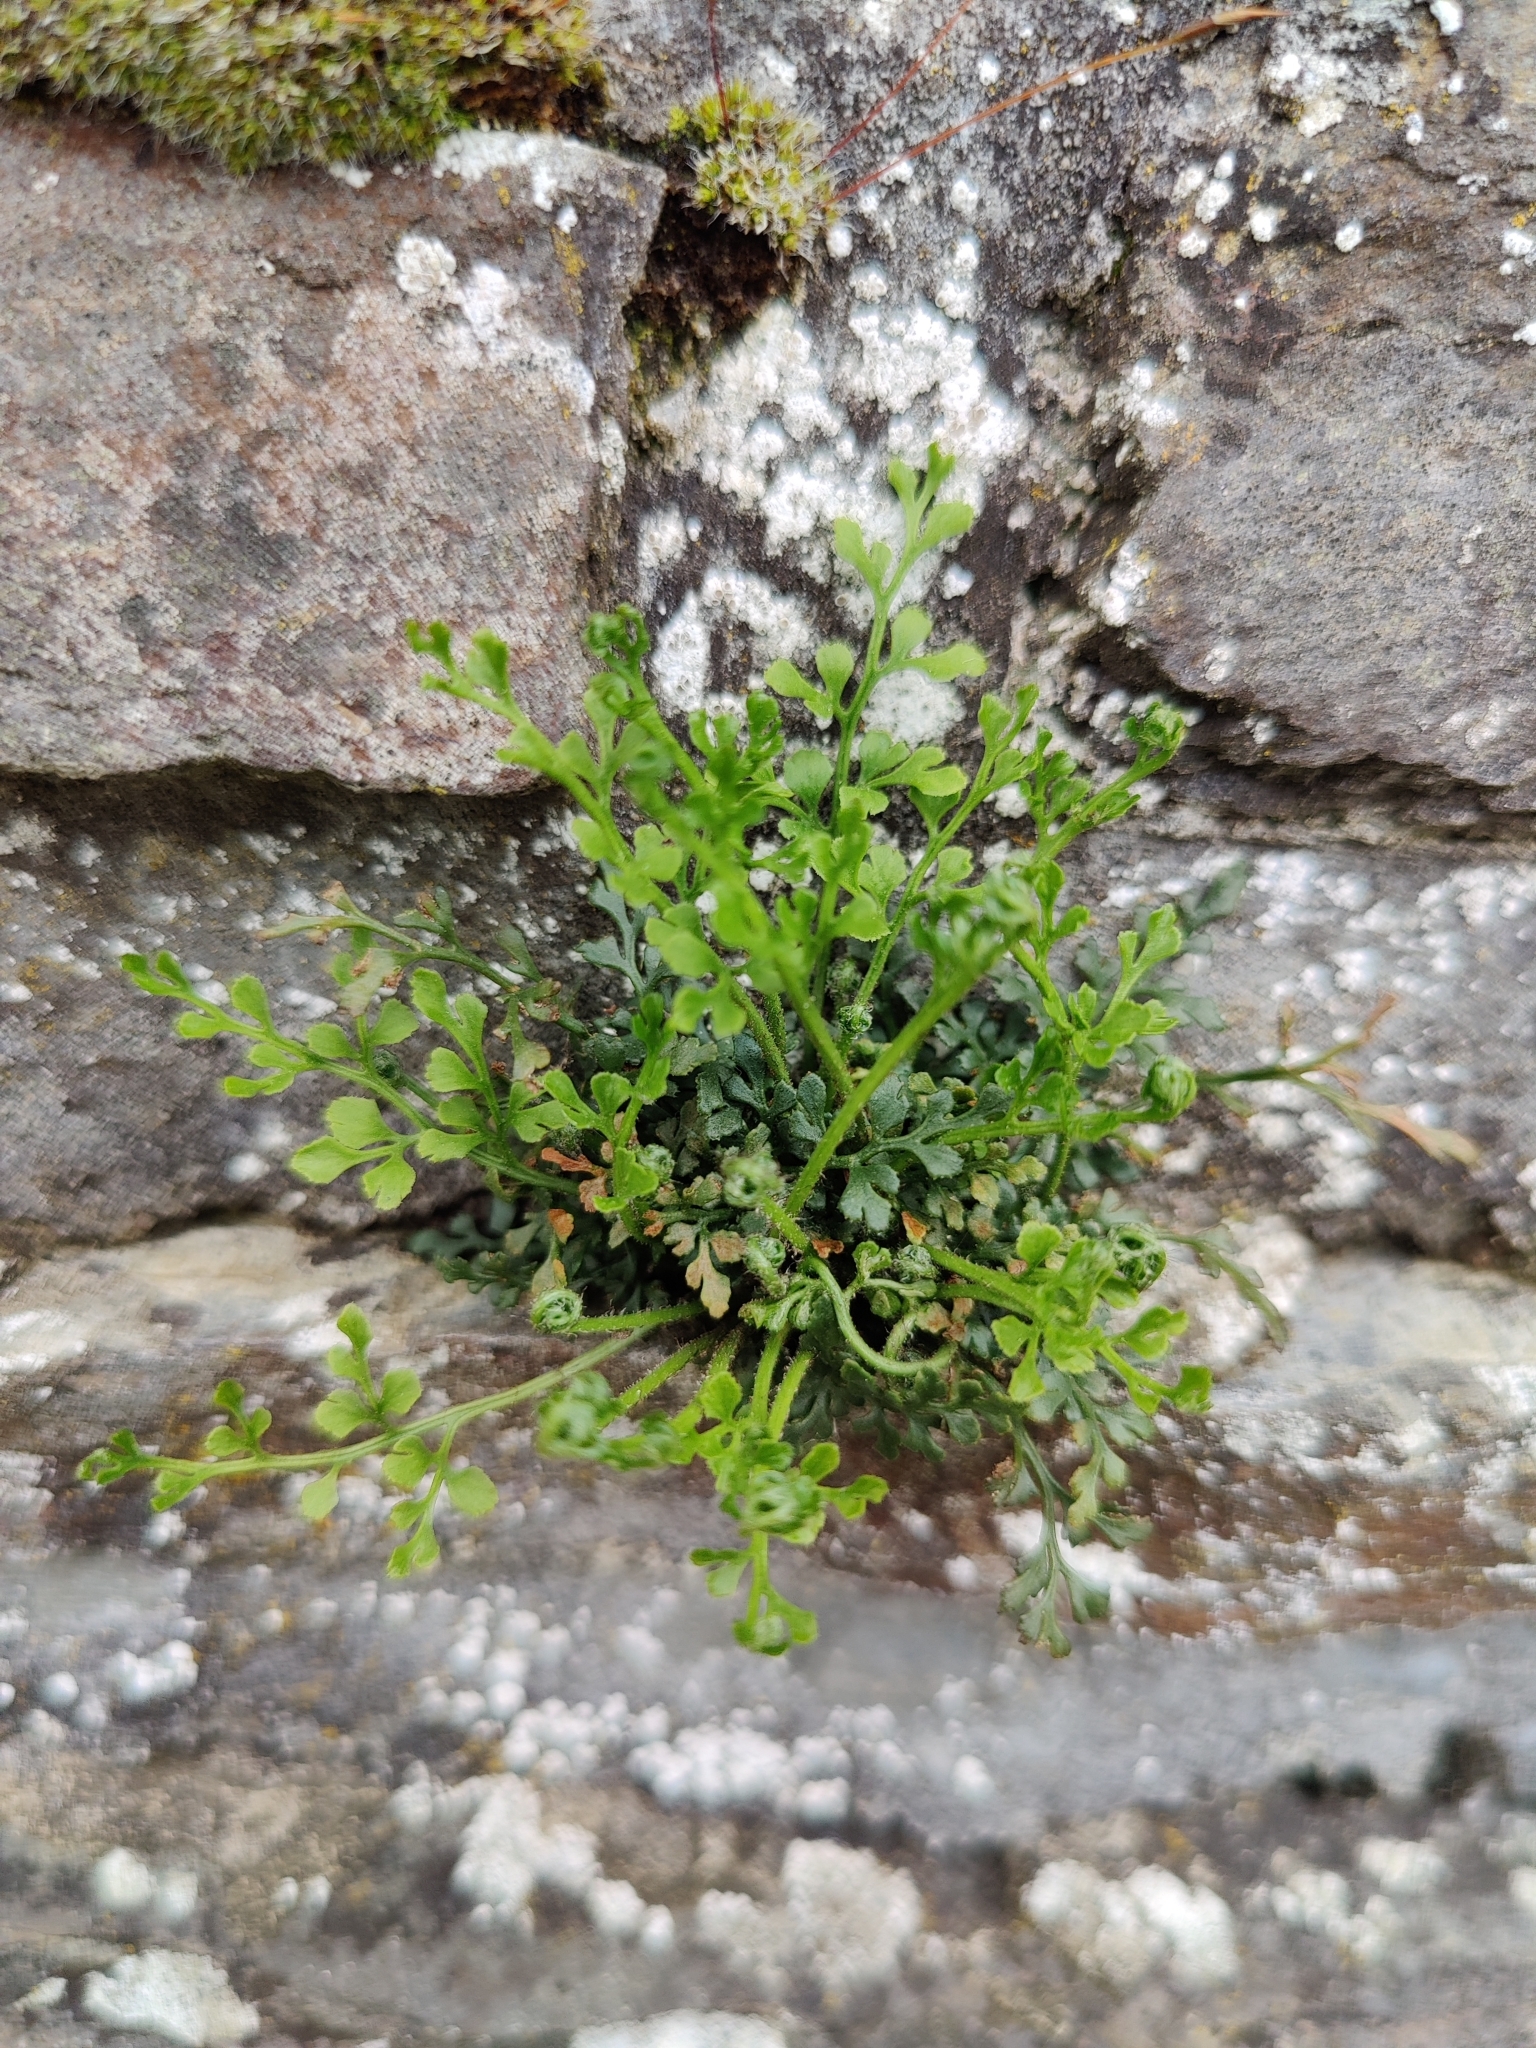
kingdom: Plantae
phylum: Tracheophyta
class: Polypodiopsida
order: Polypodiales
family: Aspleniaceae
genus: Asplenium
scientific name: Asplenium ruta-muraria
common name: Wall-rue
